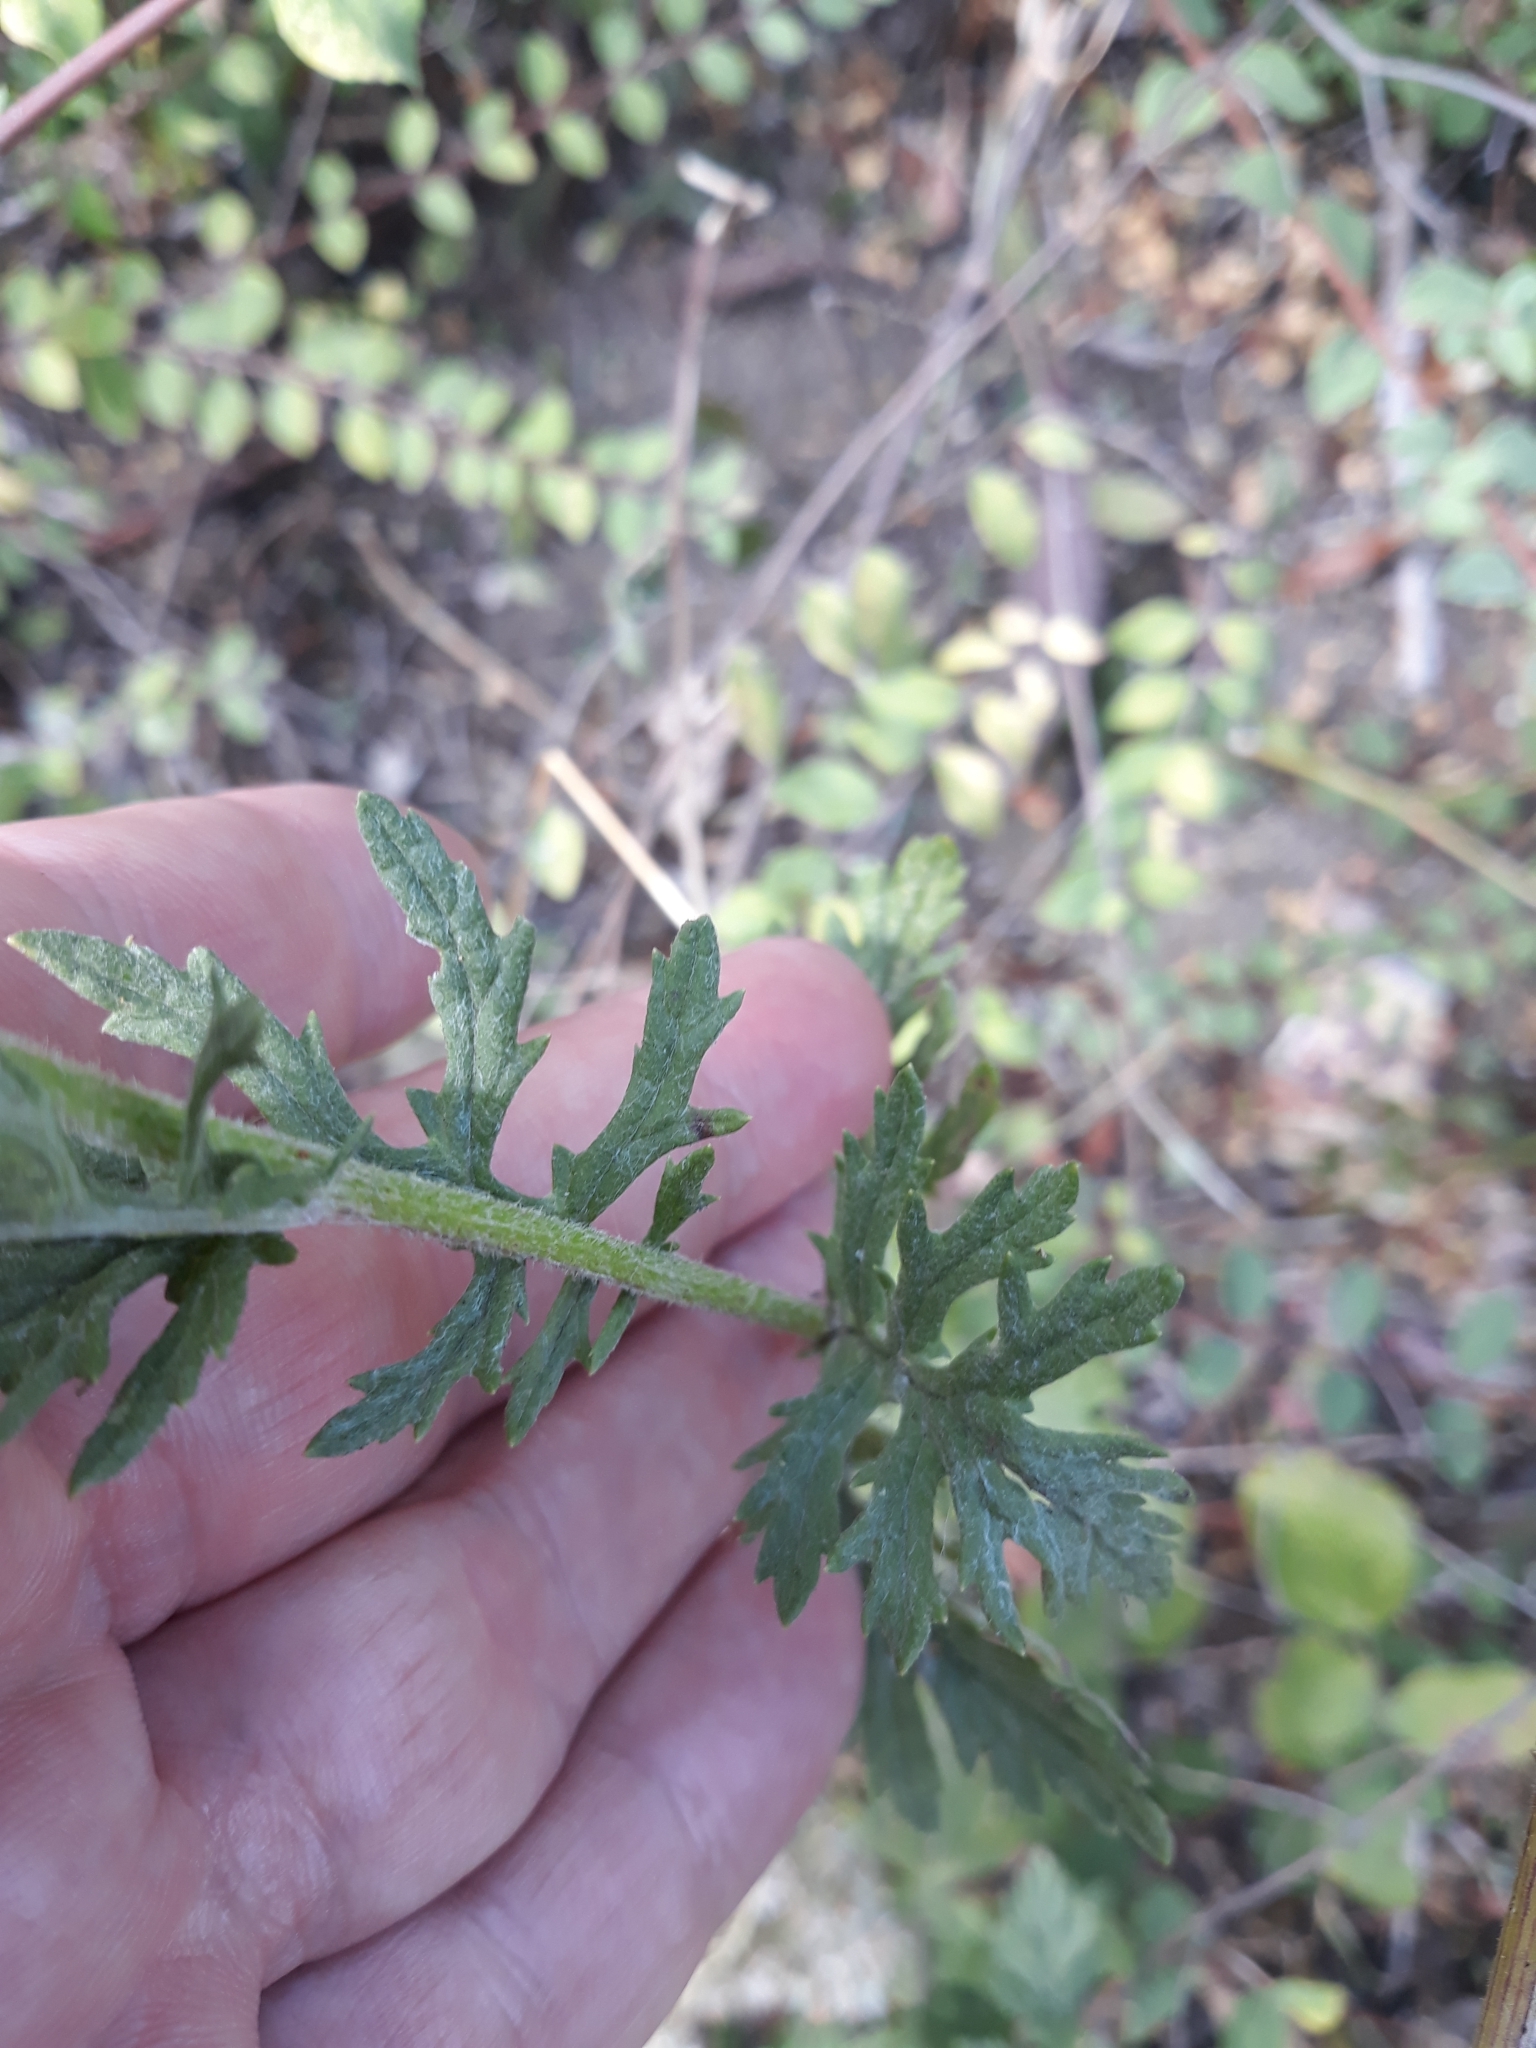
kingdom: Plantae
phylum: Tracheophyta
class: Magnoliopsida
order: Asterales
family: Asteraceae
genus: Jacobaea
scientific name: Jacobaea erucifolia
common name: Hoary ragwort
